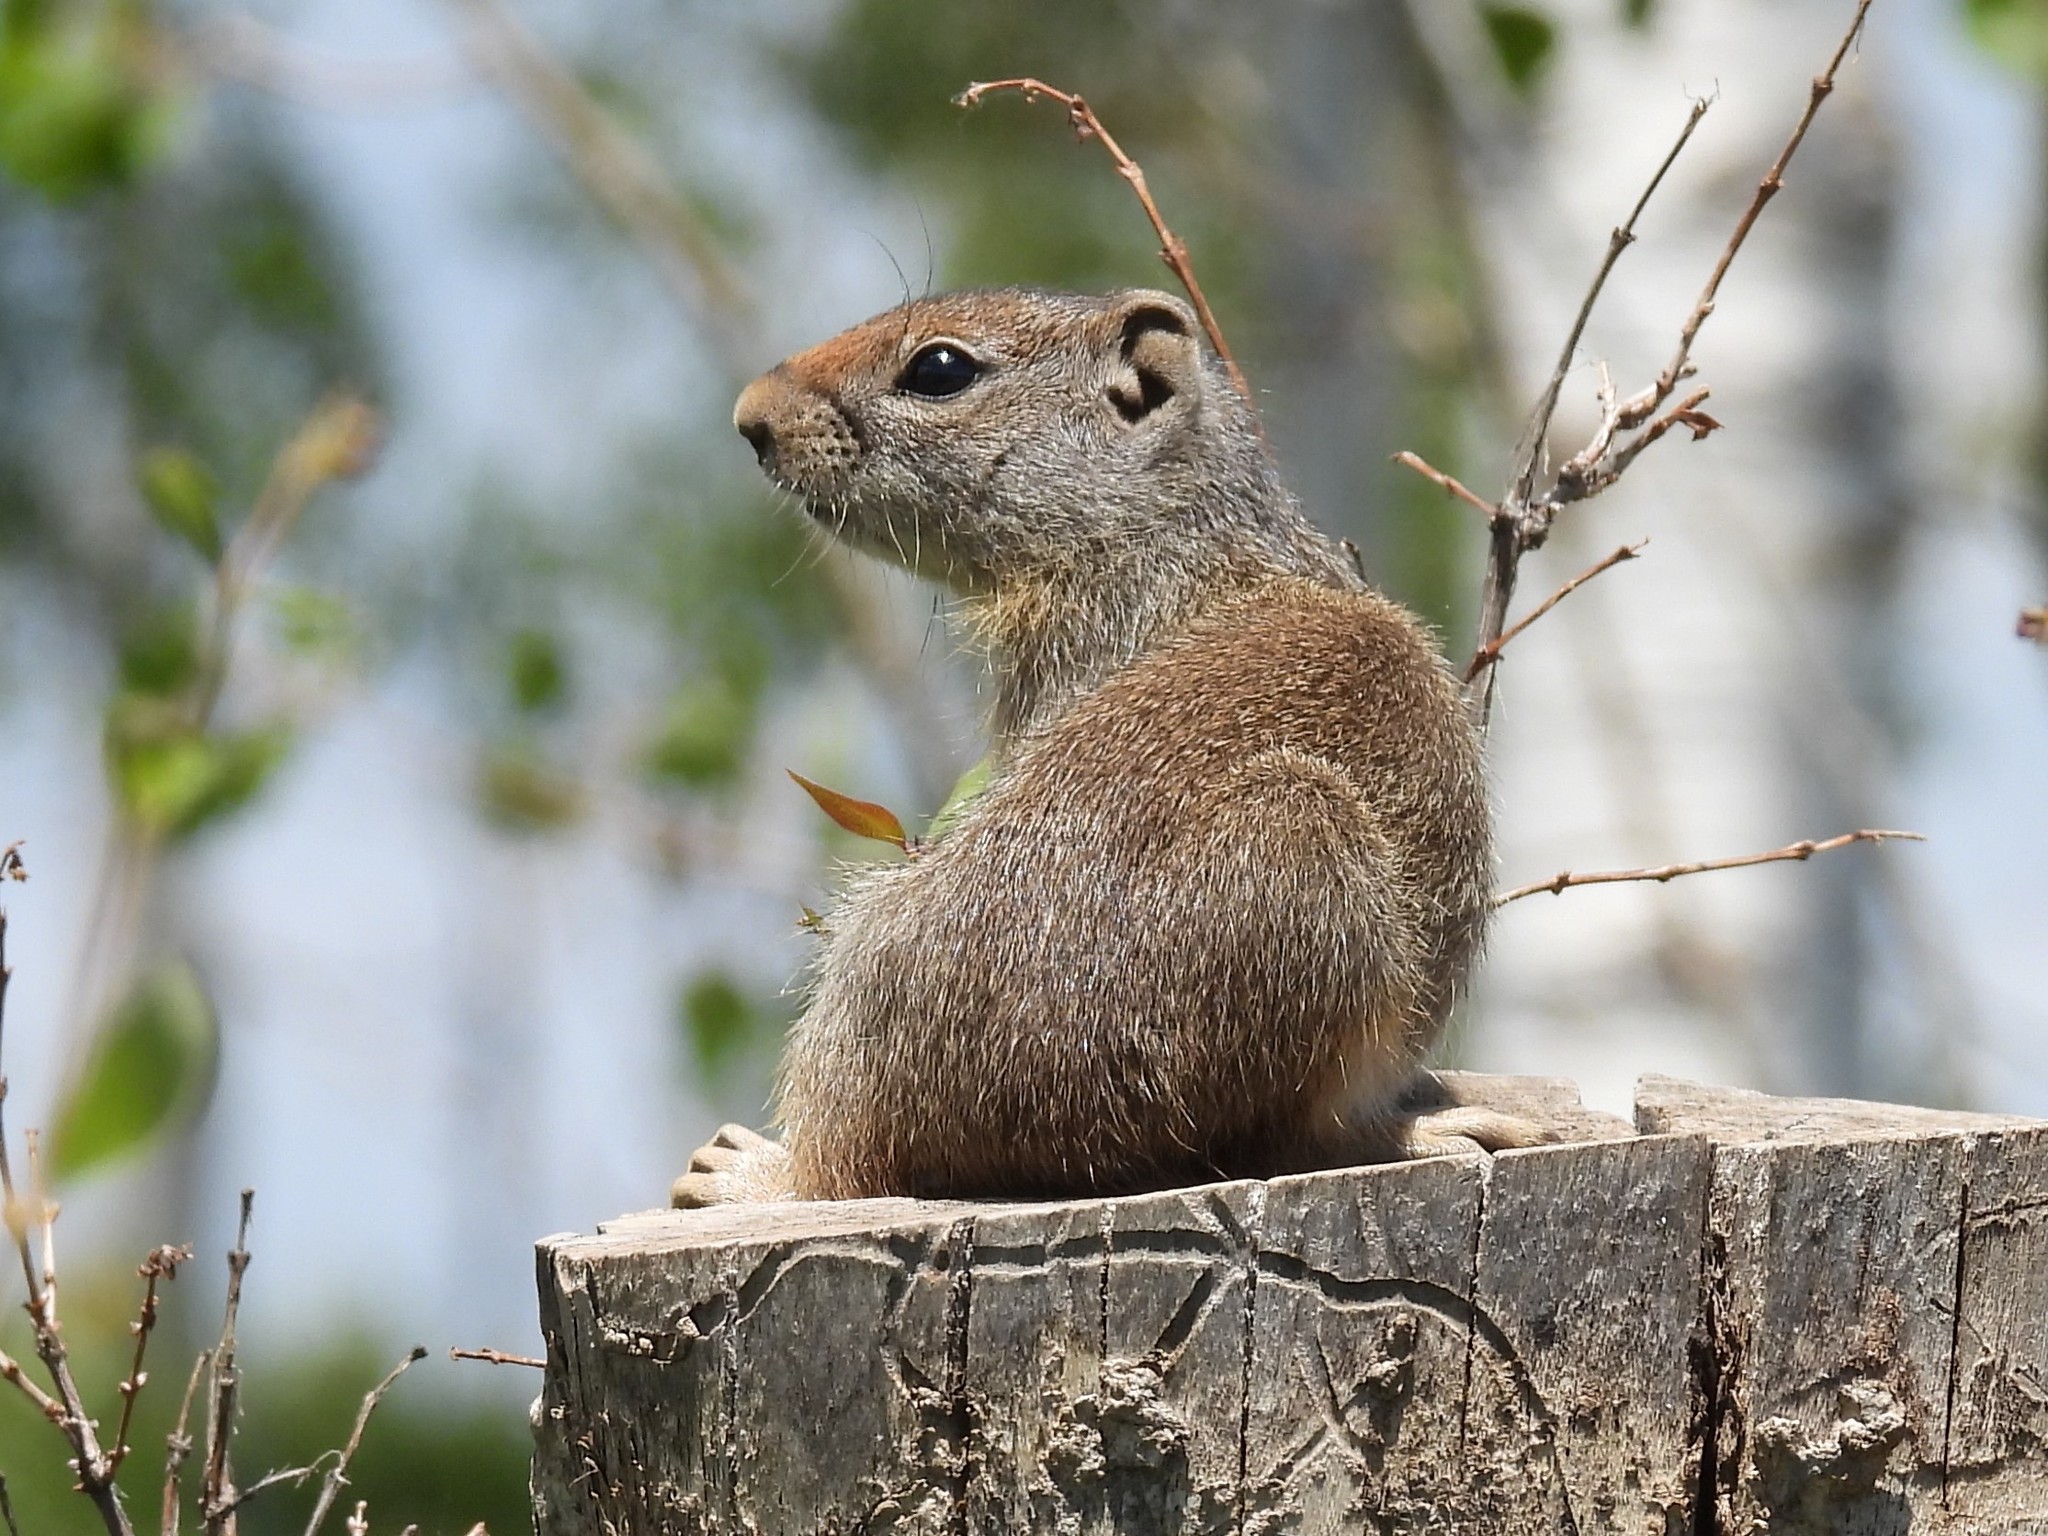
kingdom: Animalia
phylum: Chordata
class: Mammalia
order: Rodentia
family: Sciuridae
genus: Urocitellus
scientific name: Urocitellus armatus
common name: Uinta ground squirrel
